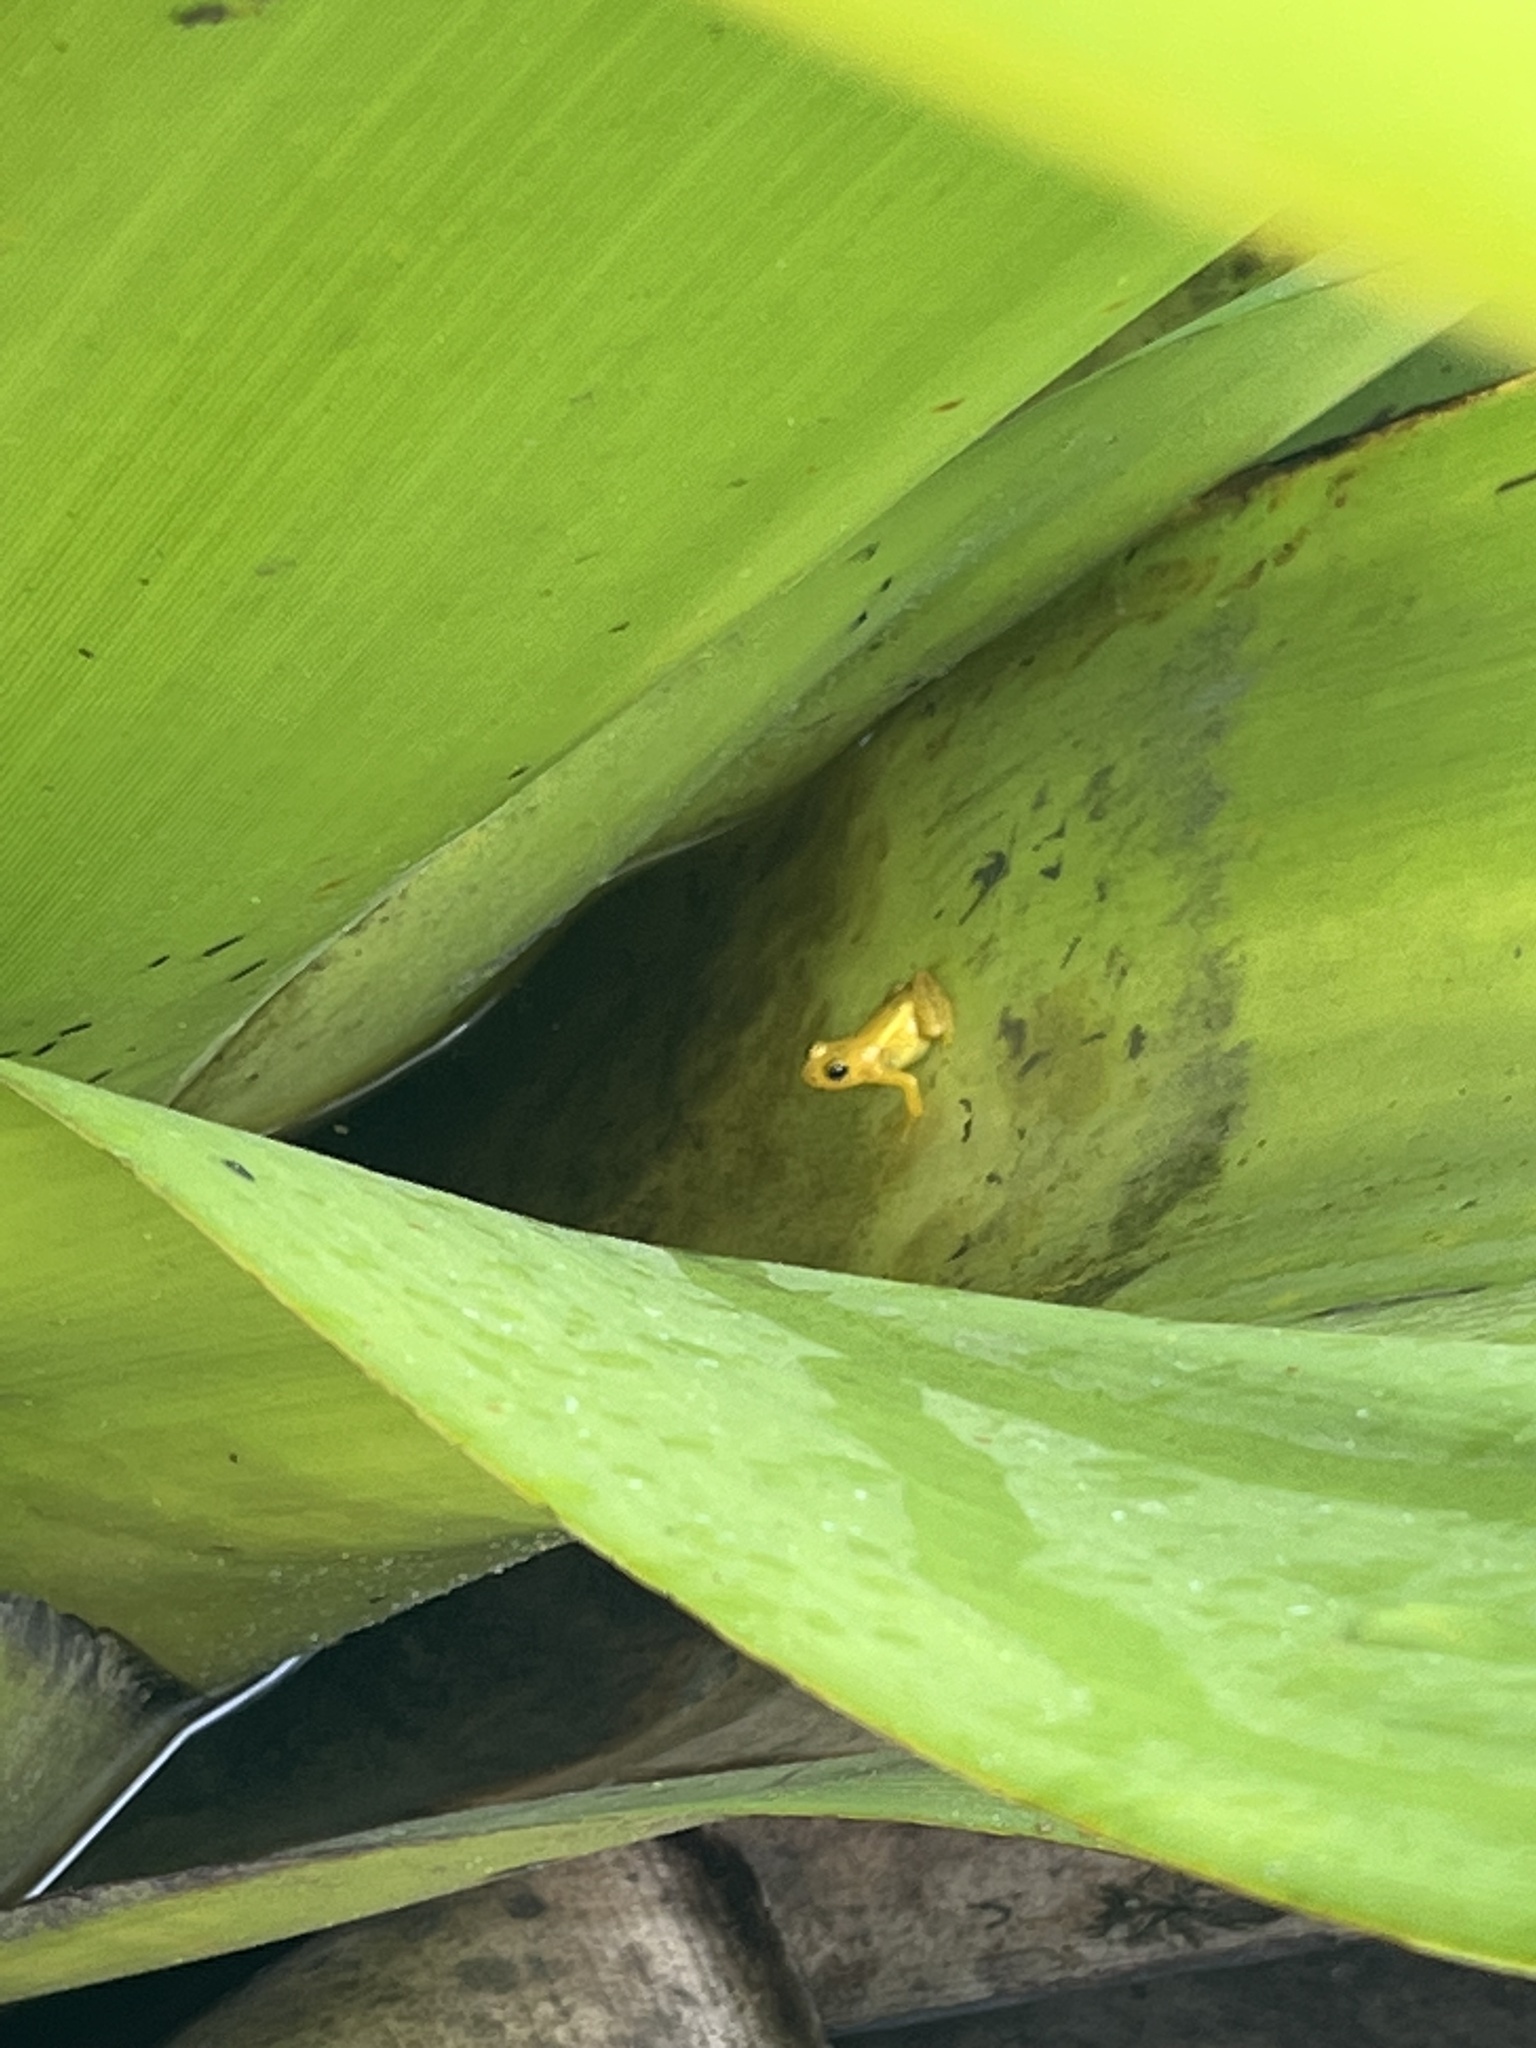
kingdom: Animalia
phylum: Chordata
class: Amphibia
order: Anura
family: Aromobatidae
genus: Anomaloglossus
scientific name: Anomaloglossus beebei
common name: Beebe's rocket frog
